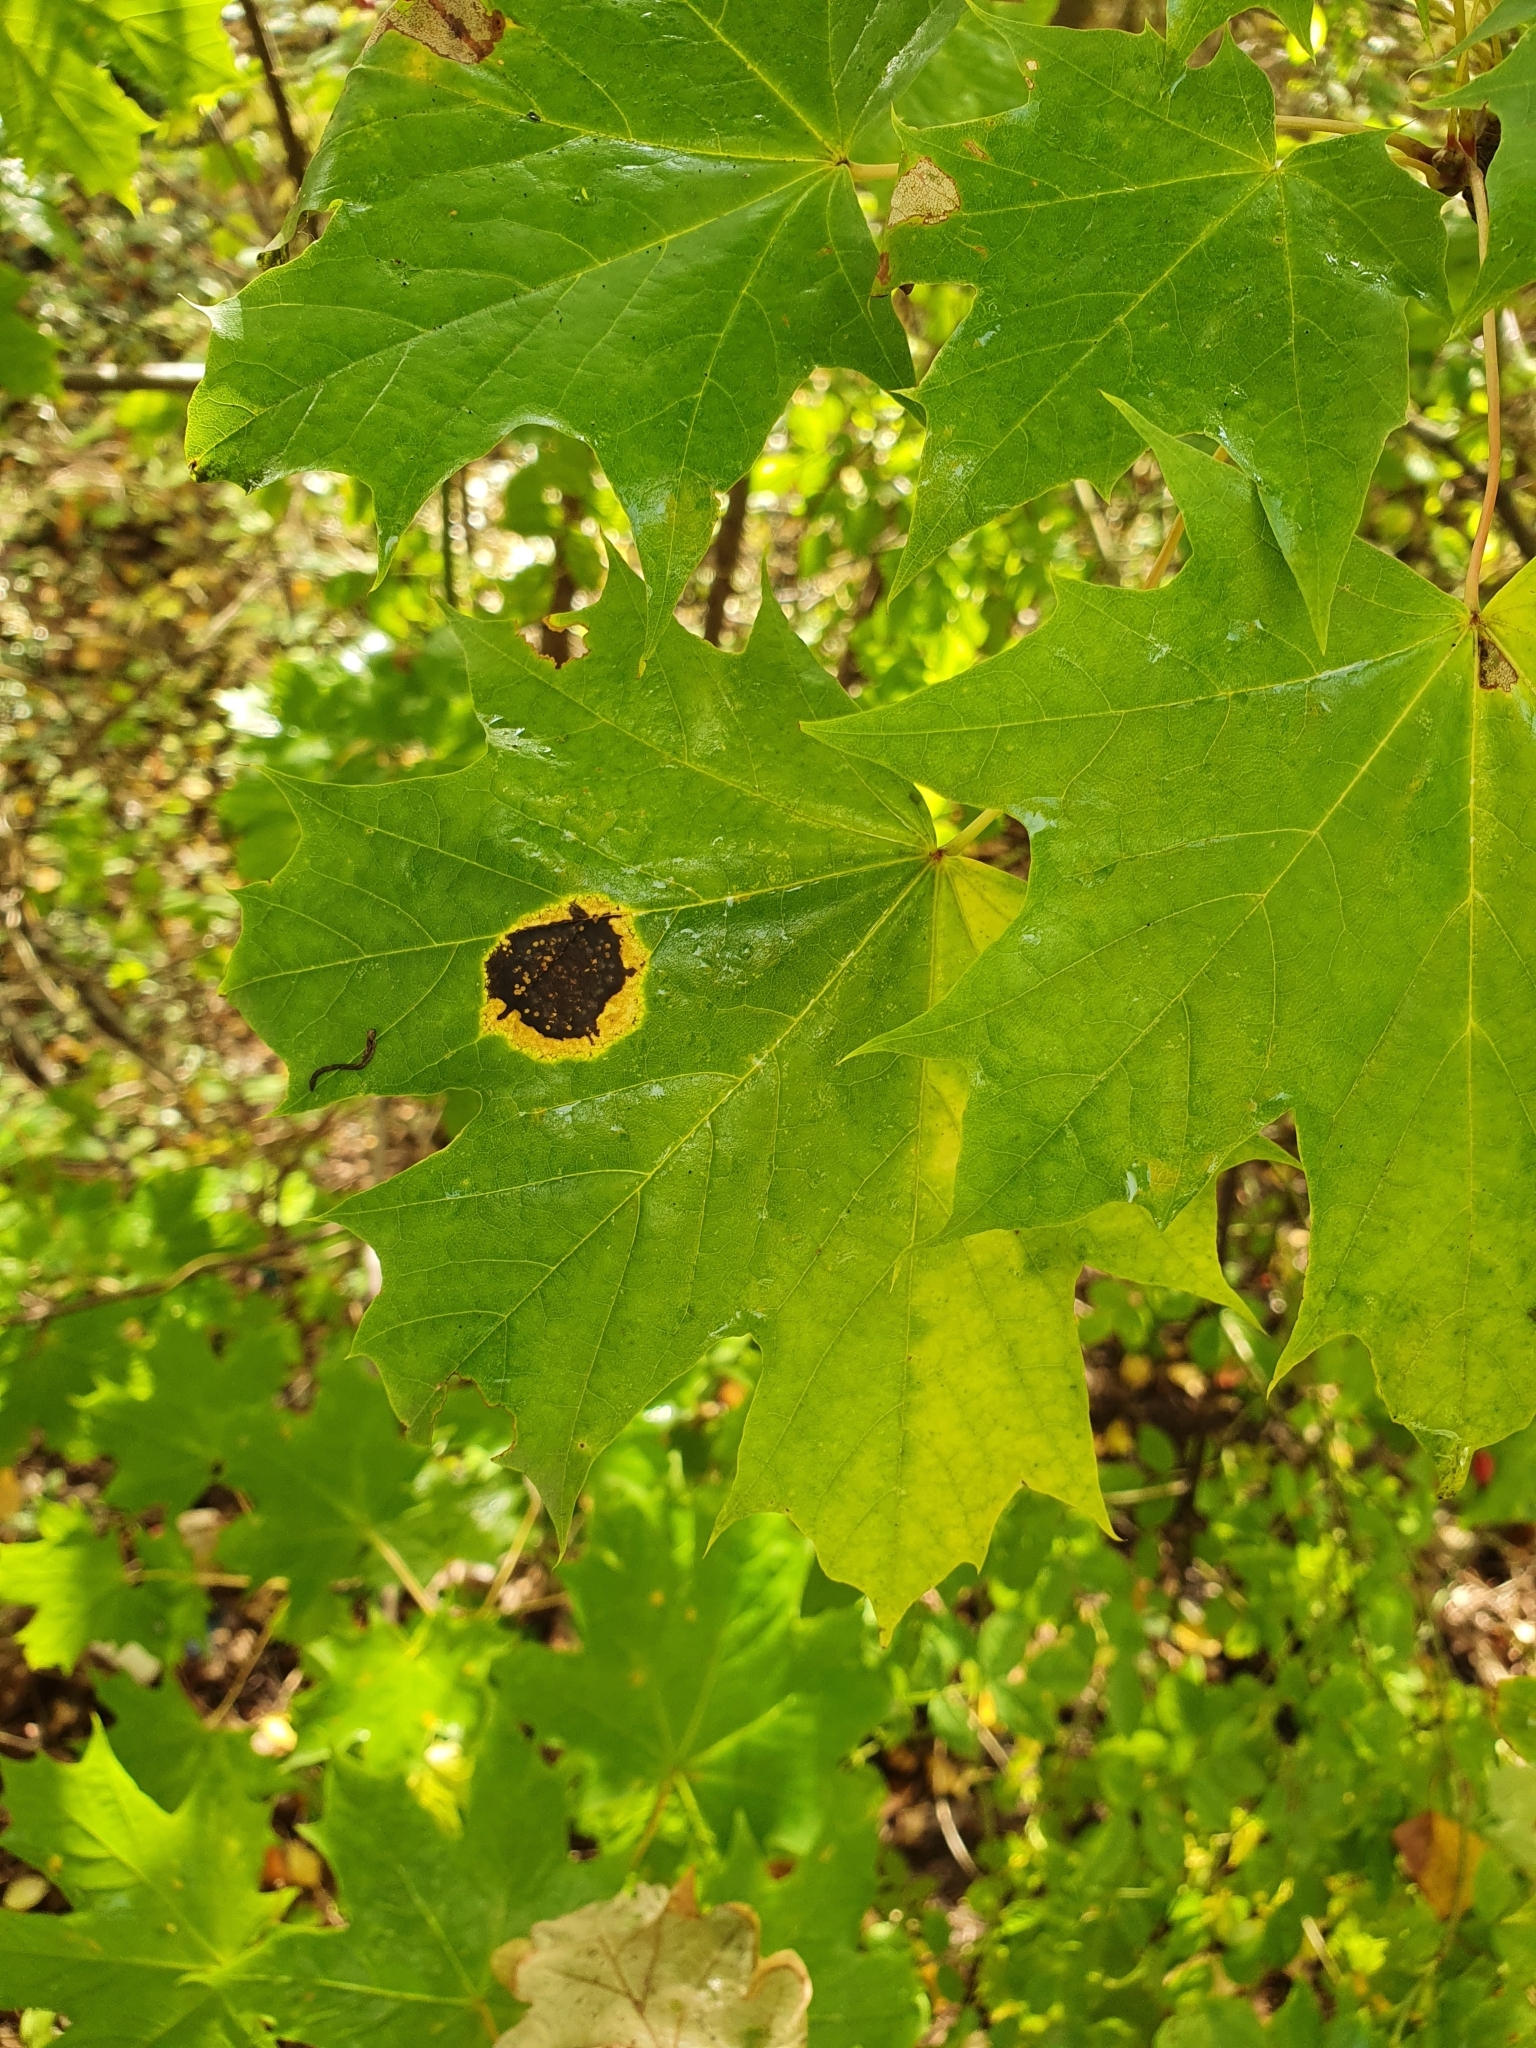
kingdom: Fungi
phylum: Ascomycota
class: Leotiomycetes
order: Rhytismatales
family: Rhytismataceae
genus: Rhytisma
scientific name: Rhytisma acerinum
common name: European tar spot
